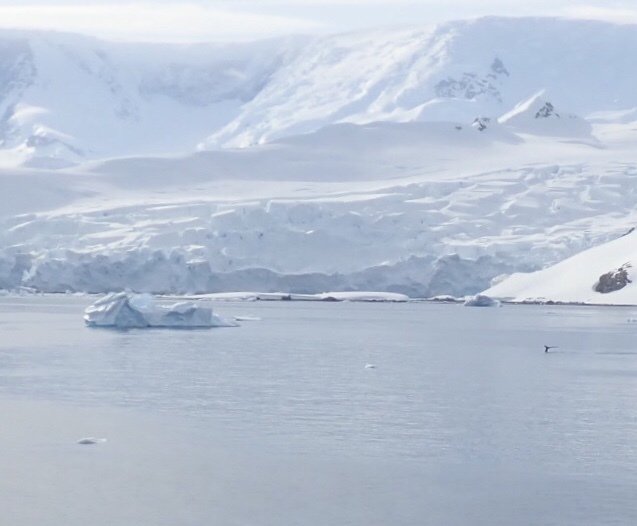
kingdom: Animalia
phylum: Chordata
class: Mammalia
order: Cetacea
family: Balaenopteridae
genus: Megaptera
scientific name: Megaptera novaeangliae
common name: Humpback whale
